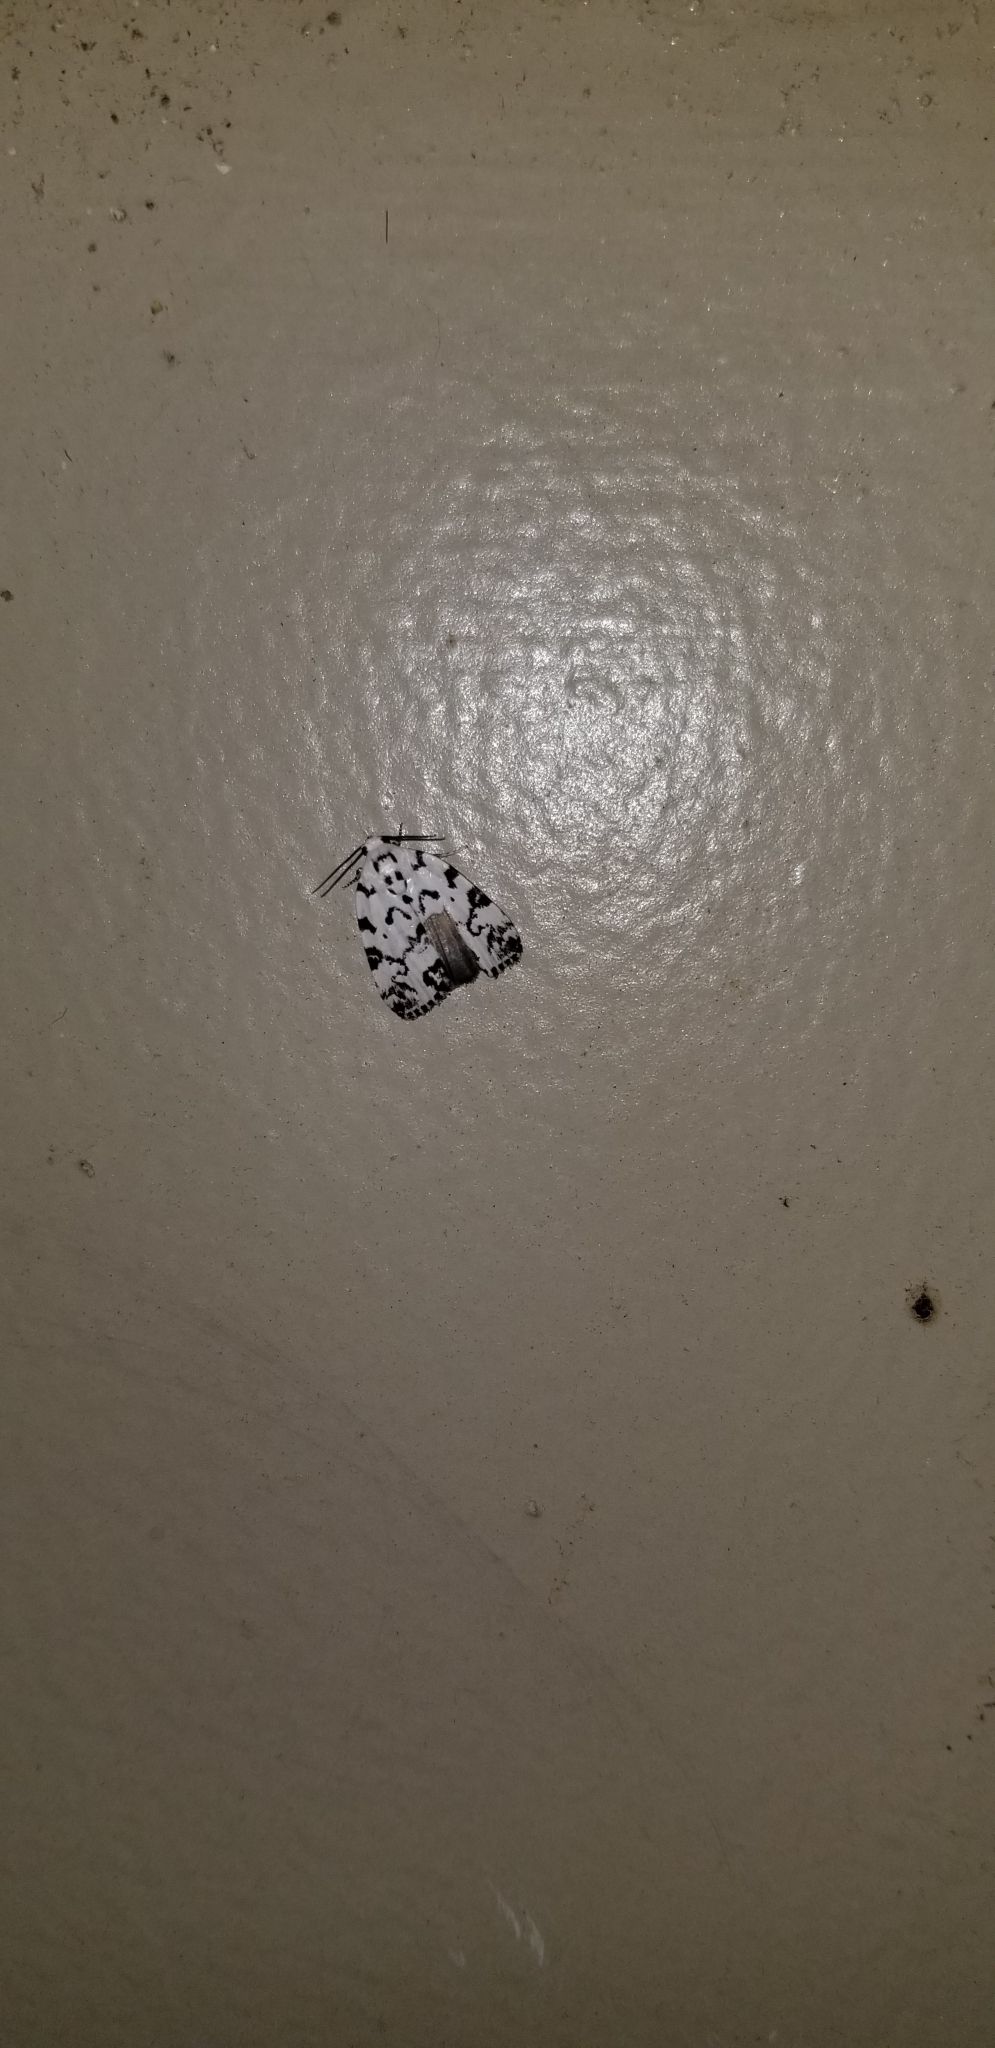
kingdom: Animalia
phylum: Arthropoda
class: Insecta
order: Lepidoptera
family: Noctuidae
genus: Polygrammate
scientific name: Polygrammate hebraeicum
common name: Hebrew moth
